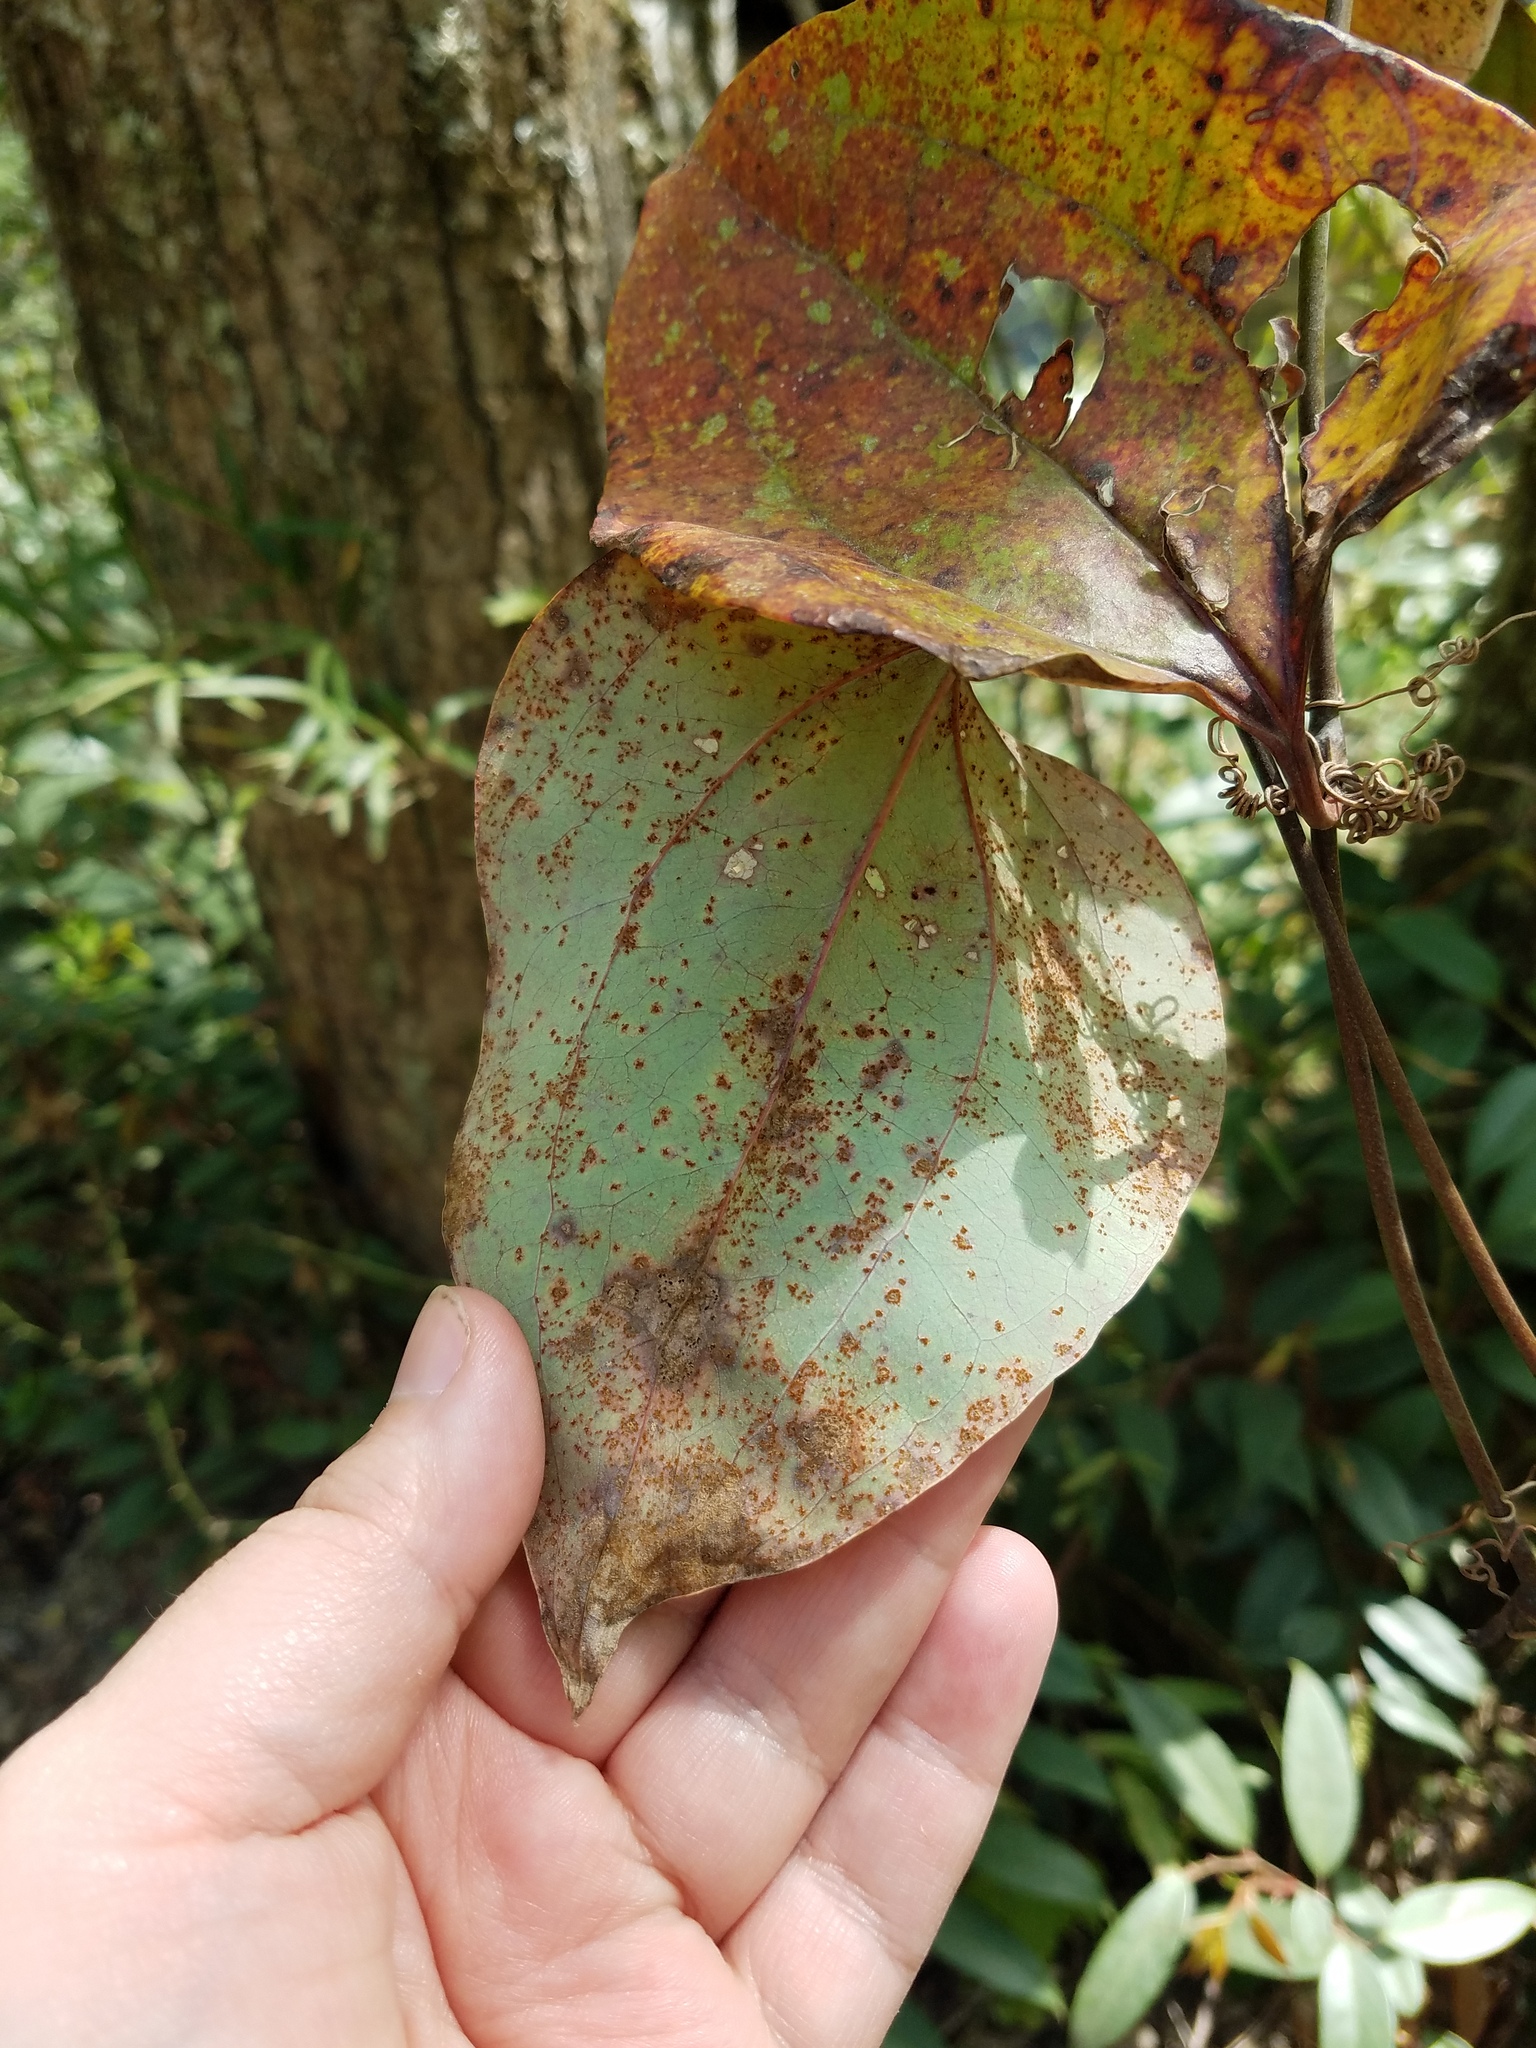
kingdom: Plantae
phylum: Tracheophyta
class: Liliopsida
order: Liliales
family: Smilacaceae
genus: Smilax
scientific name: Smilax glauca
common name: Cat greenbrier
